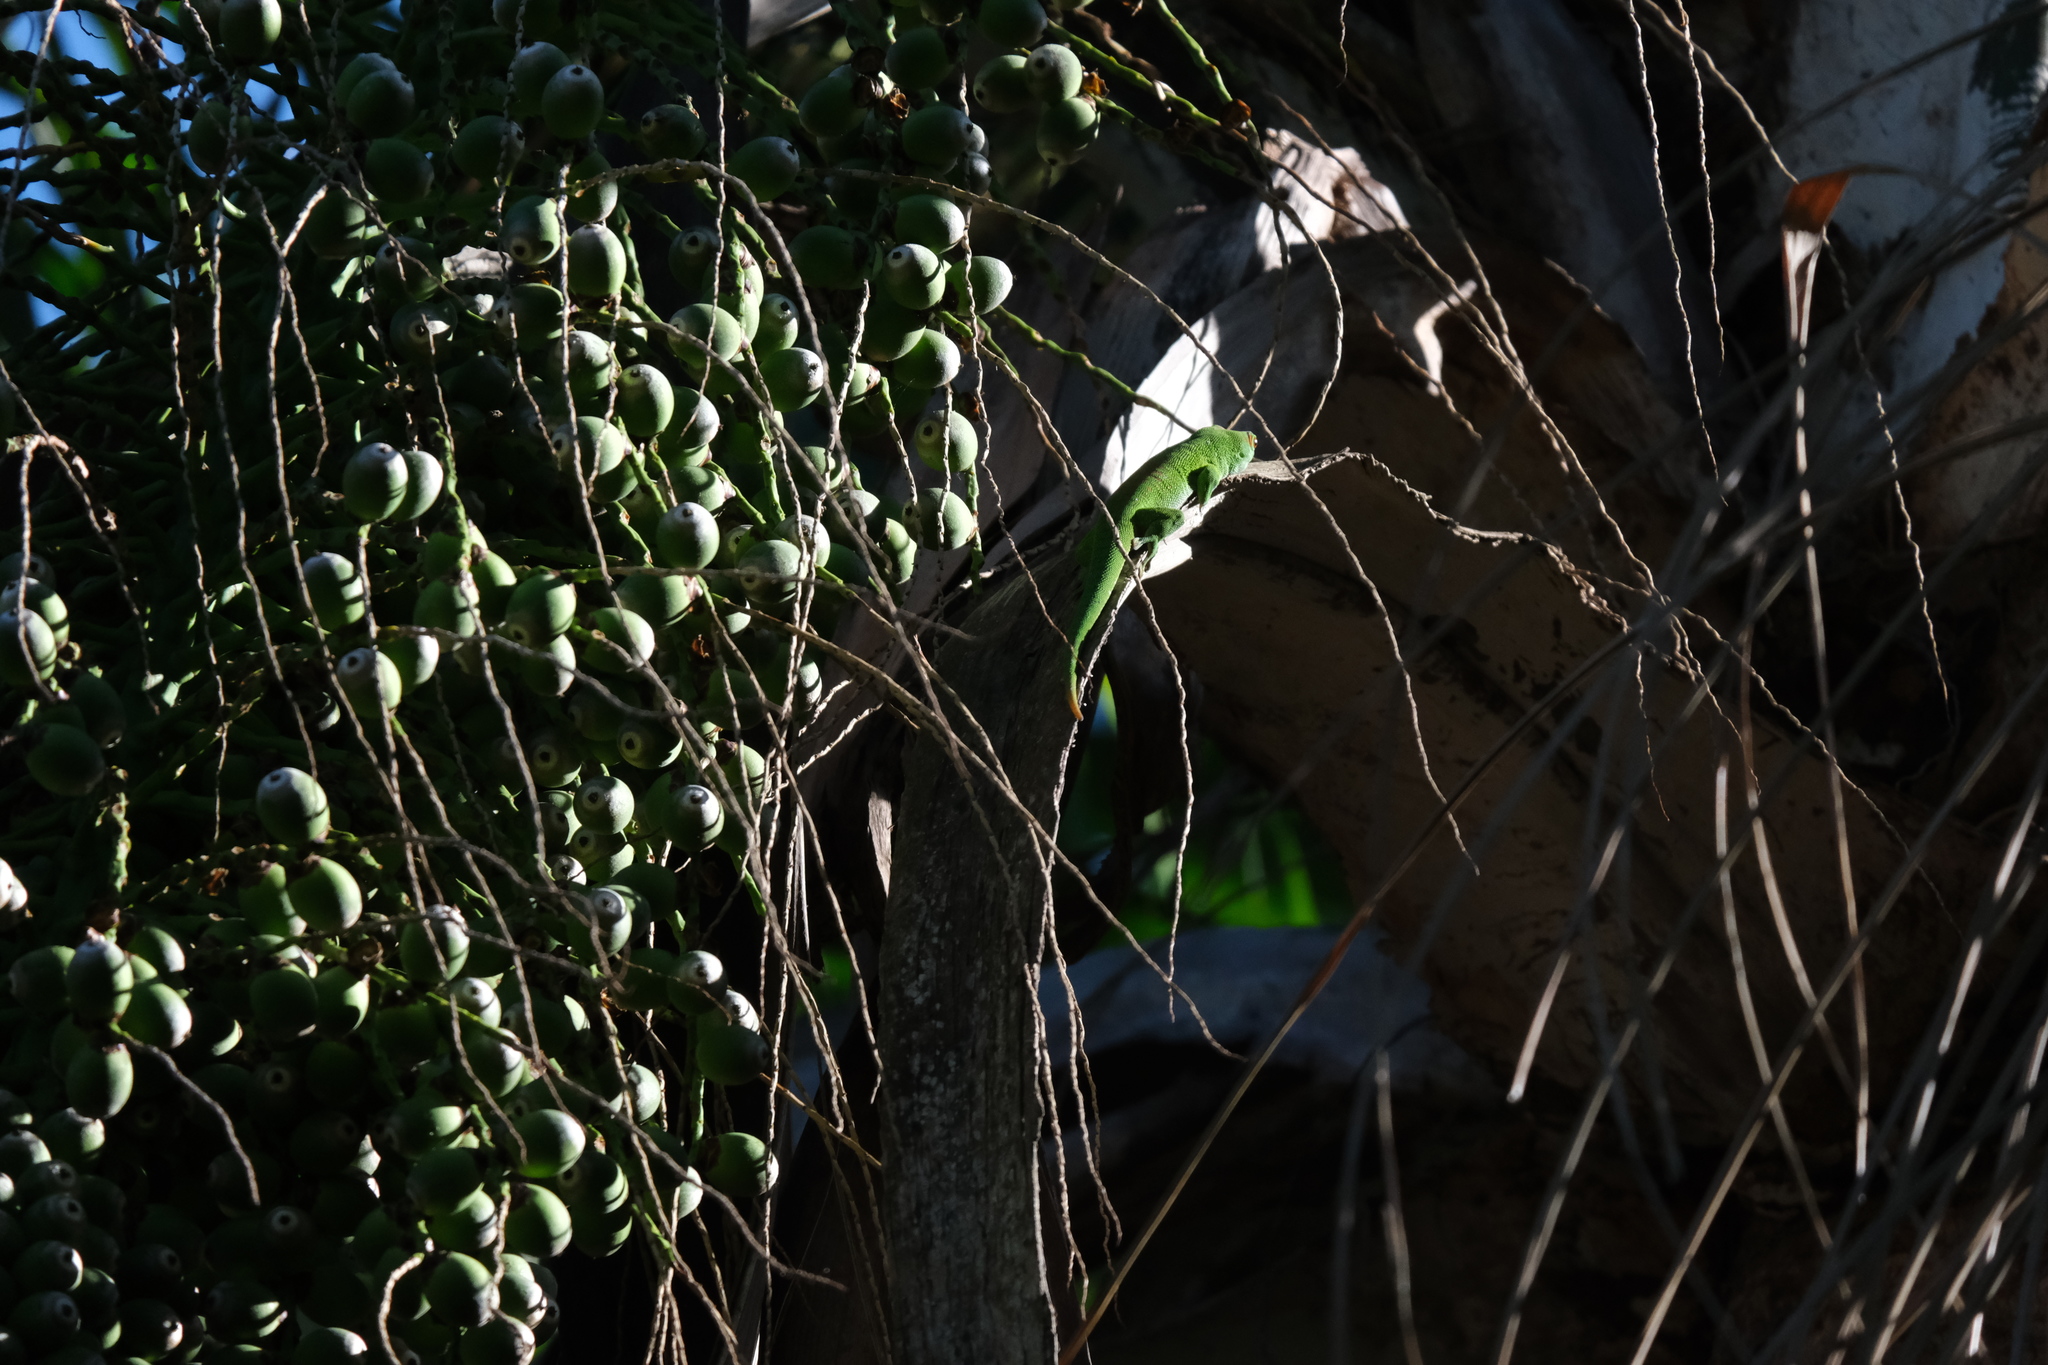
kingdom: Animalia
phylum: Chordata
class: Squamata
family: Gekkonidae
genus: Phelsuma
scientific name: Phelsuma grandis
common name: Madagascar giant day gecko
